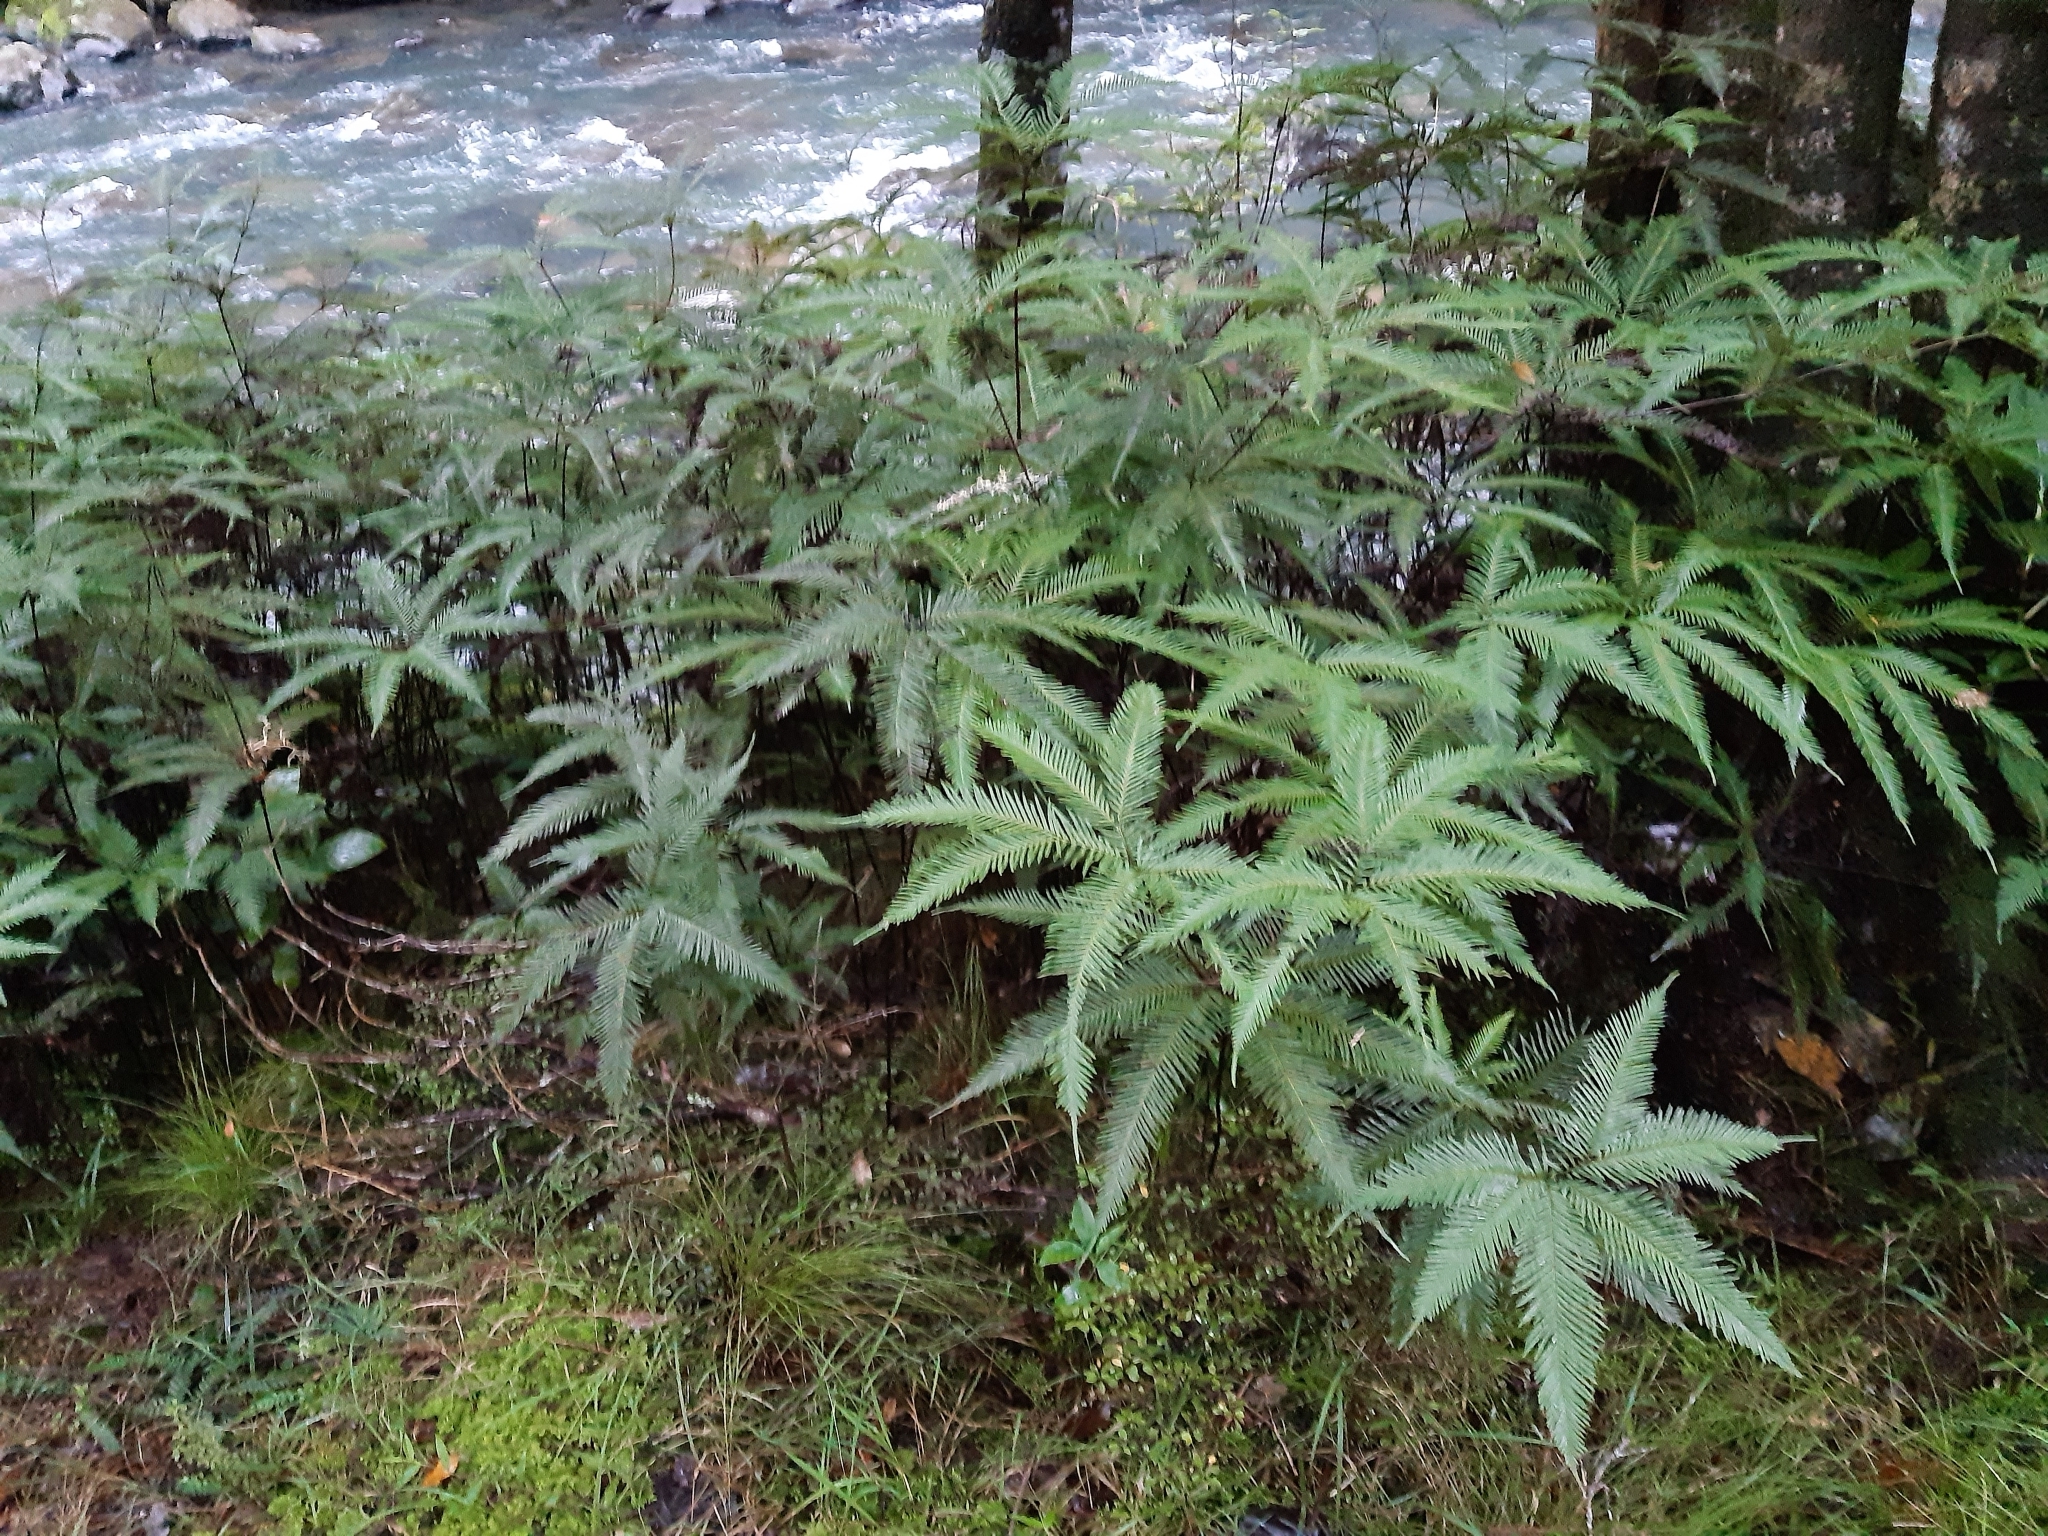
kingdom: Plantae
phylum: Tracheophyta
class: Polypodiopsida
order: Gleicheniales
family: Gleicheniaceae
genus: Sticherus
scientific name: Sticherus flabellatus
